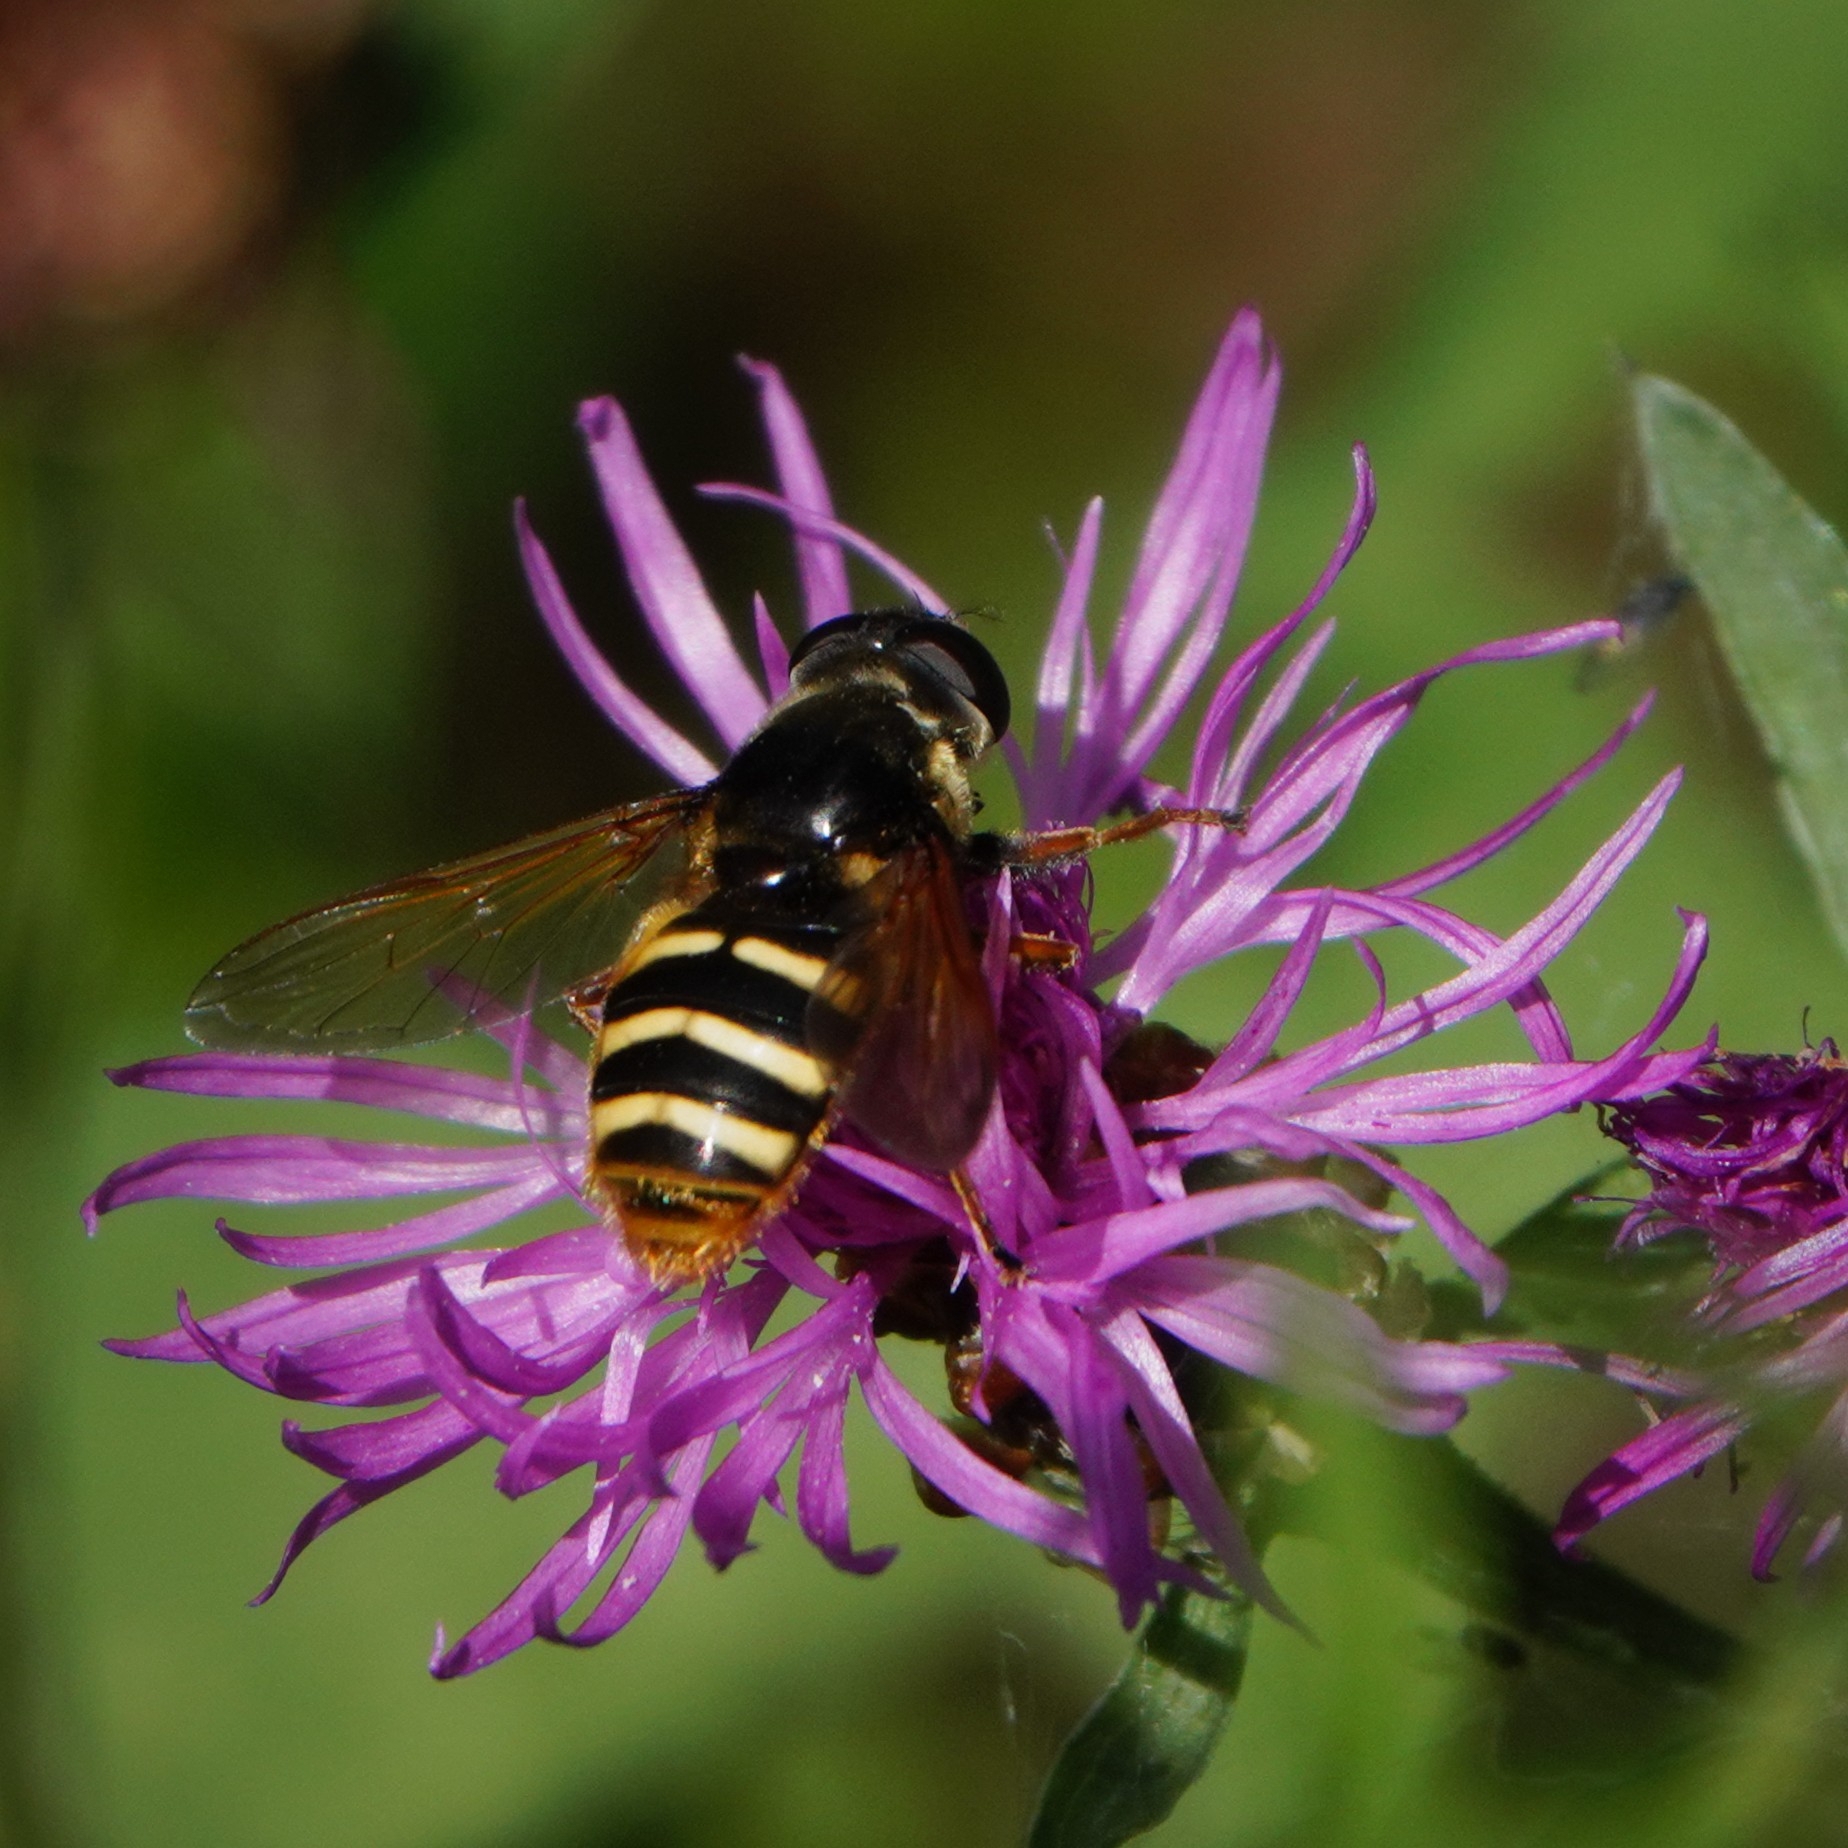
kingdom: Animalia
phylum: Arthropoda
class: Insecta
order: Diptera
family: Syrphidae
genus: Sericomyia
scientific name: Sericomyia silentis
